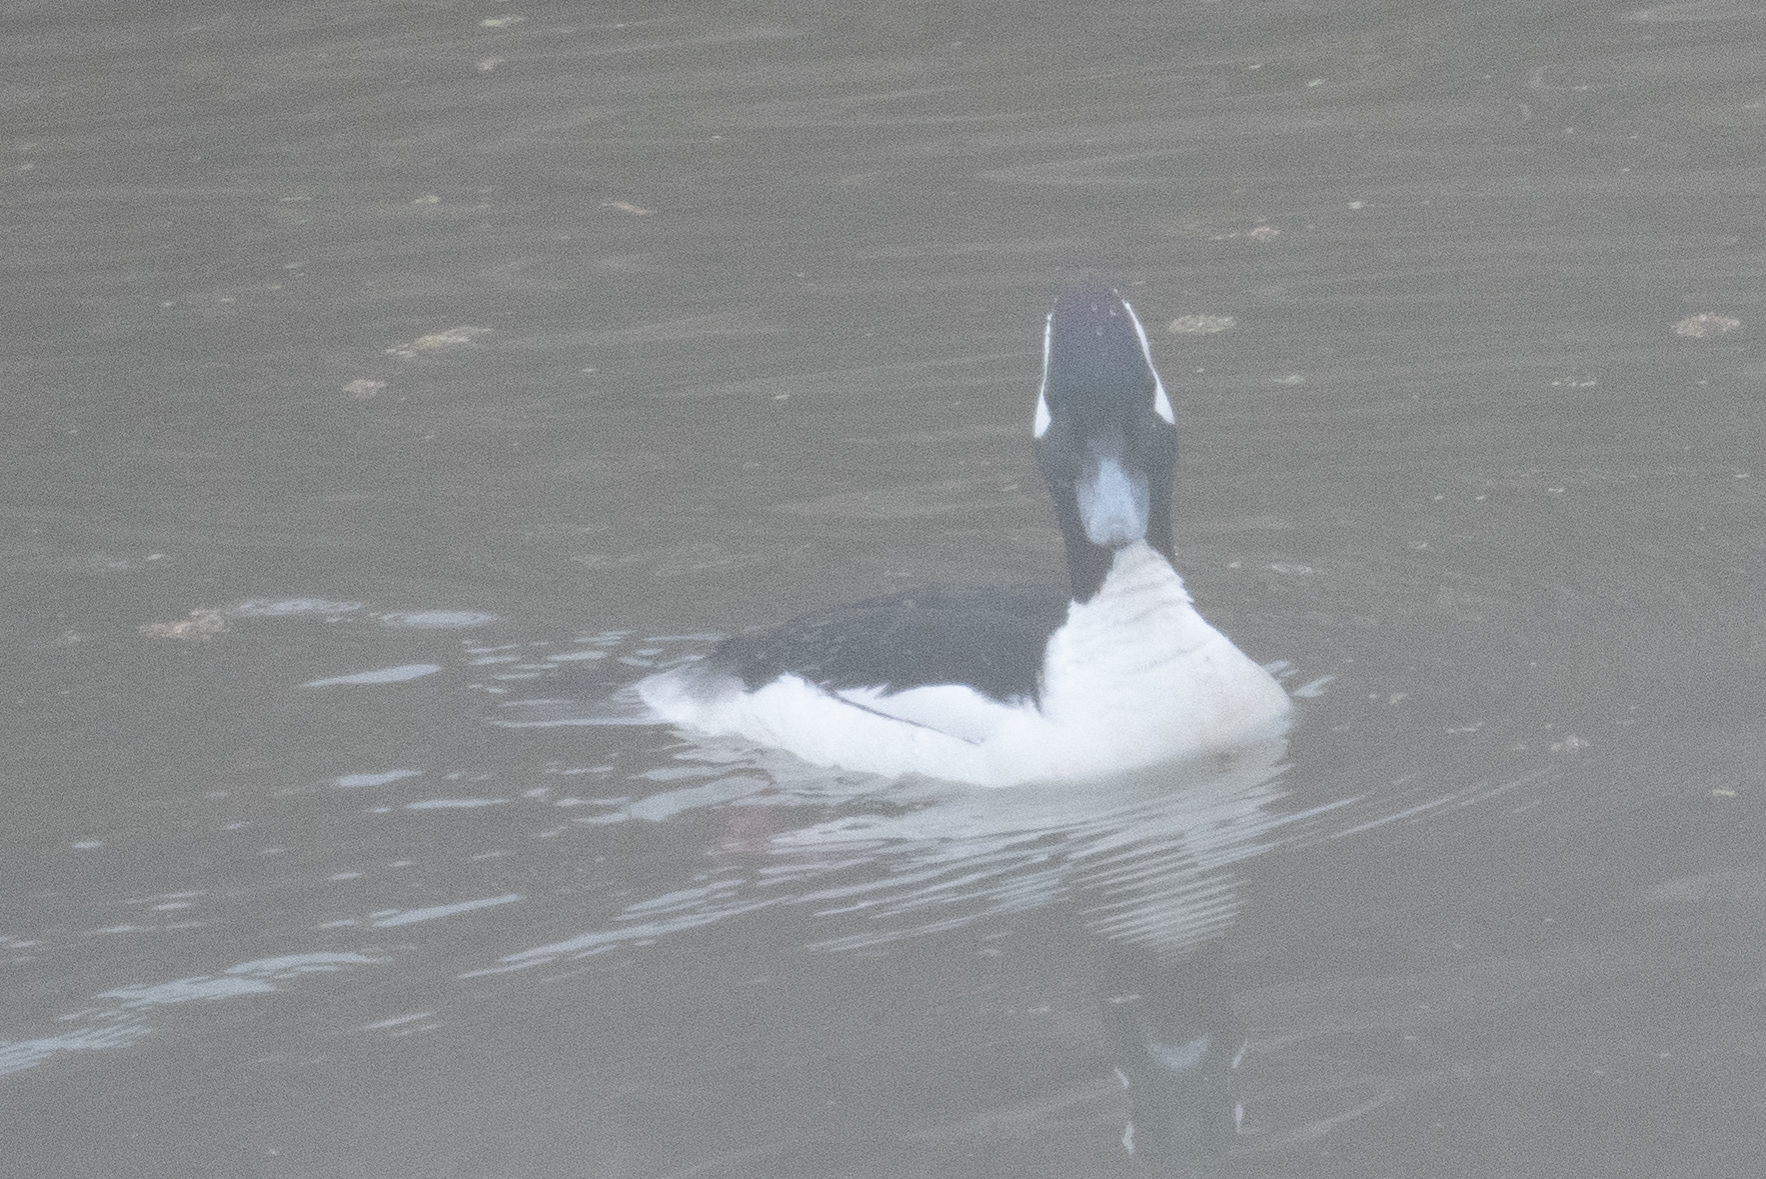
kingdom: Animalia
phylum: Chordata
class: Aves
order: Anseriformes
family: Anatidae
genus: Bucephala
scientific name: Bucephala albeola
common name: Bufflehead
